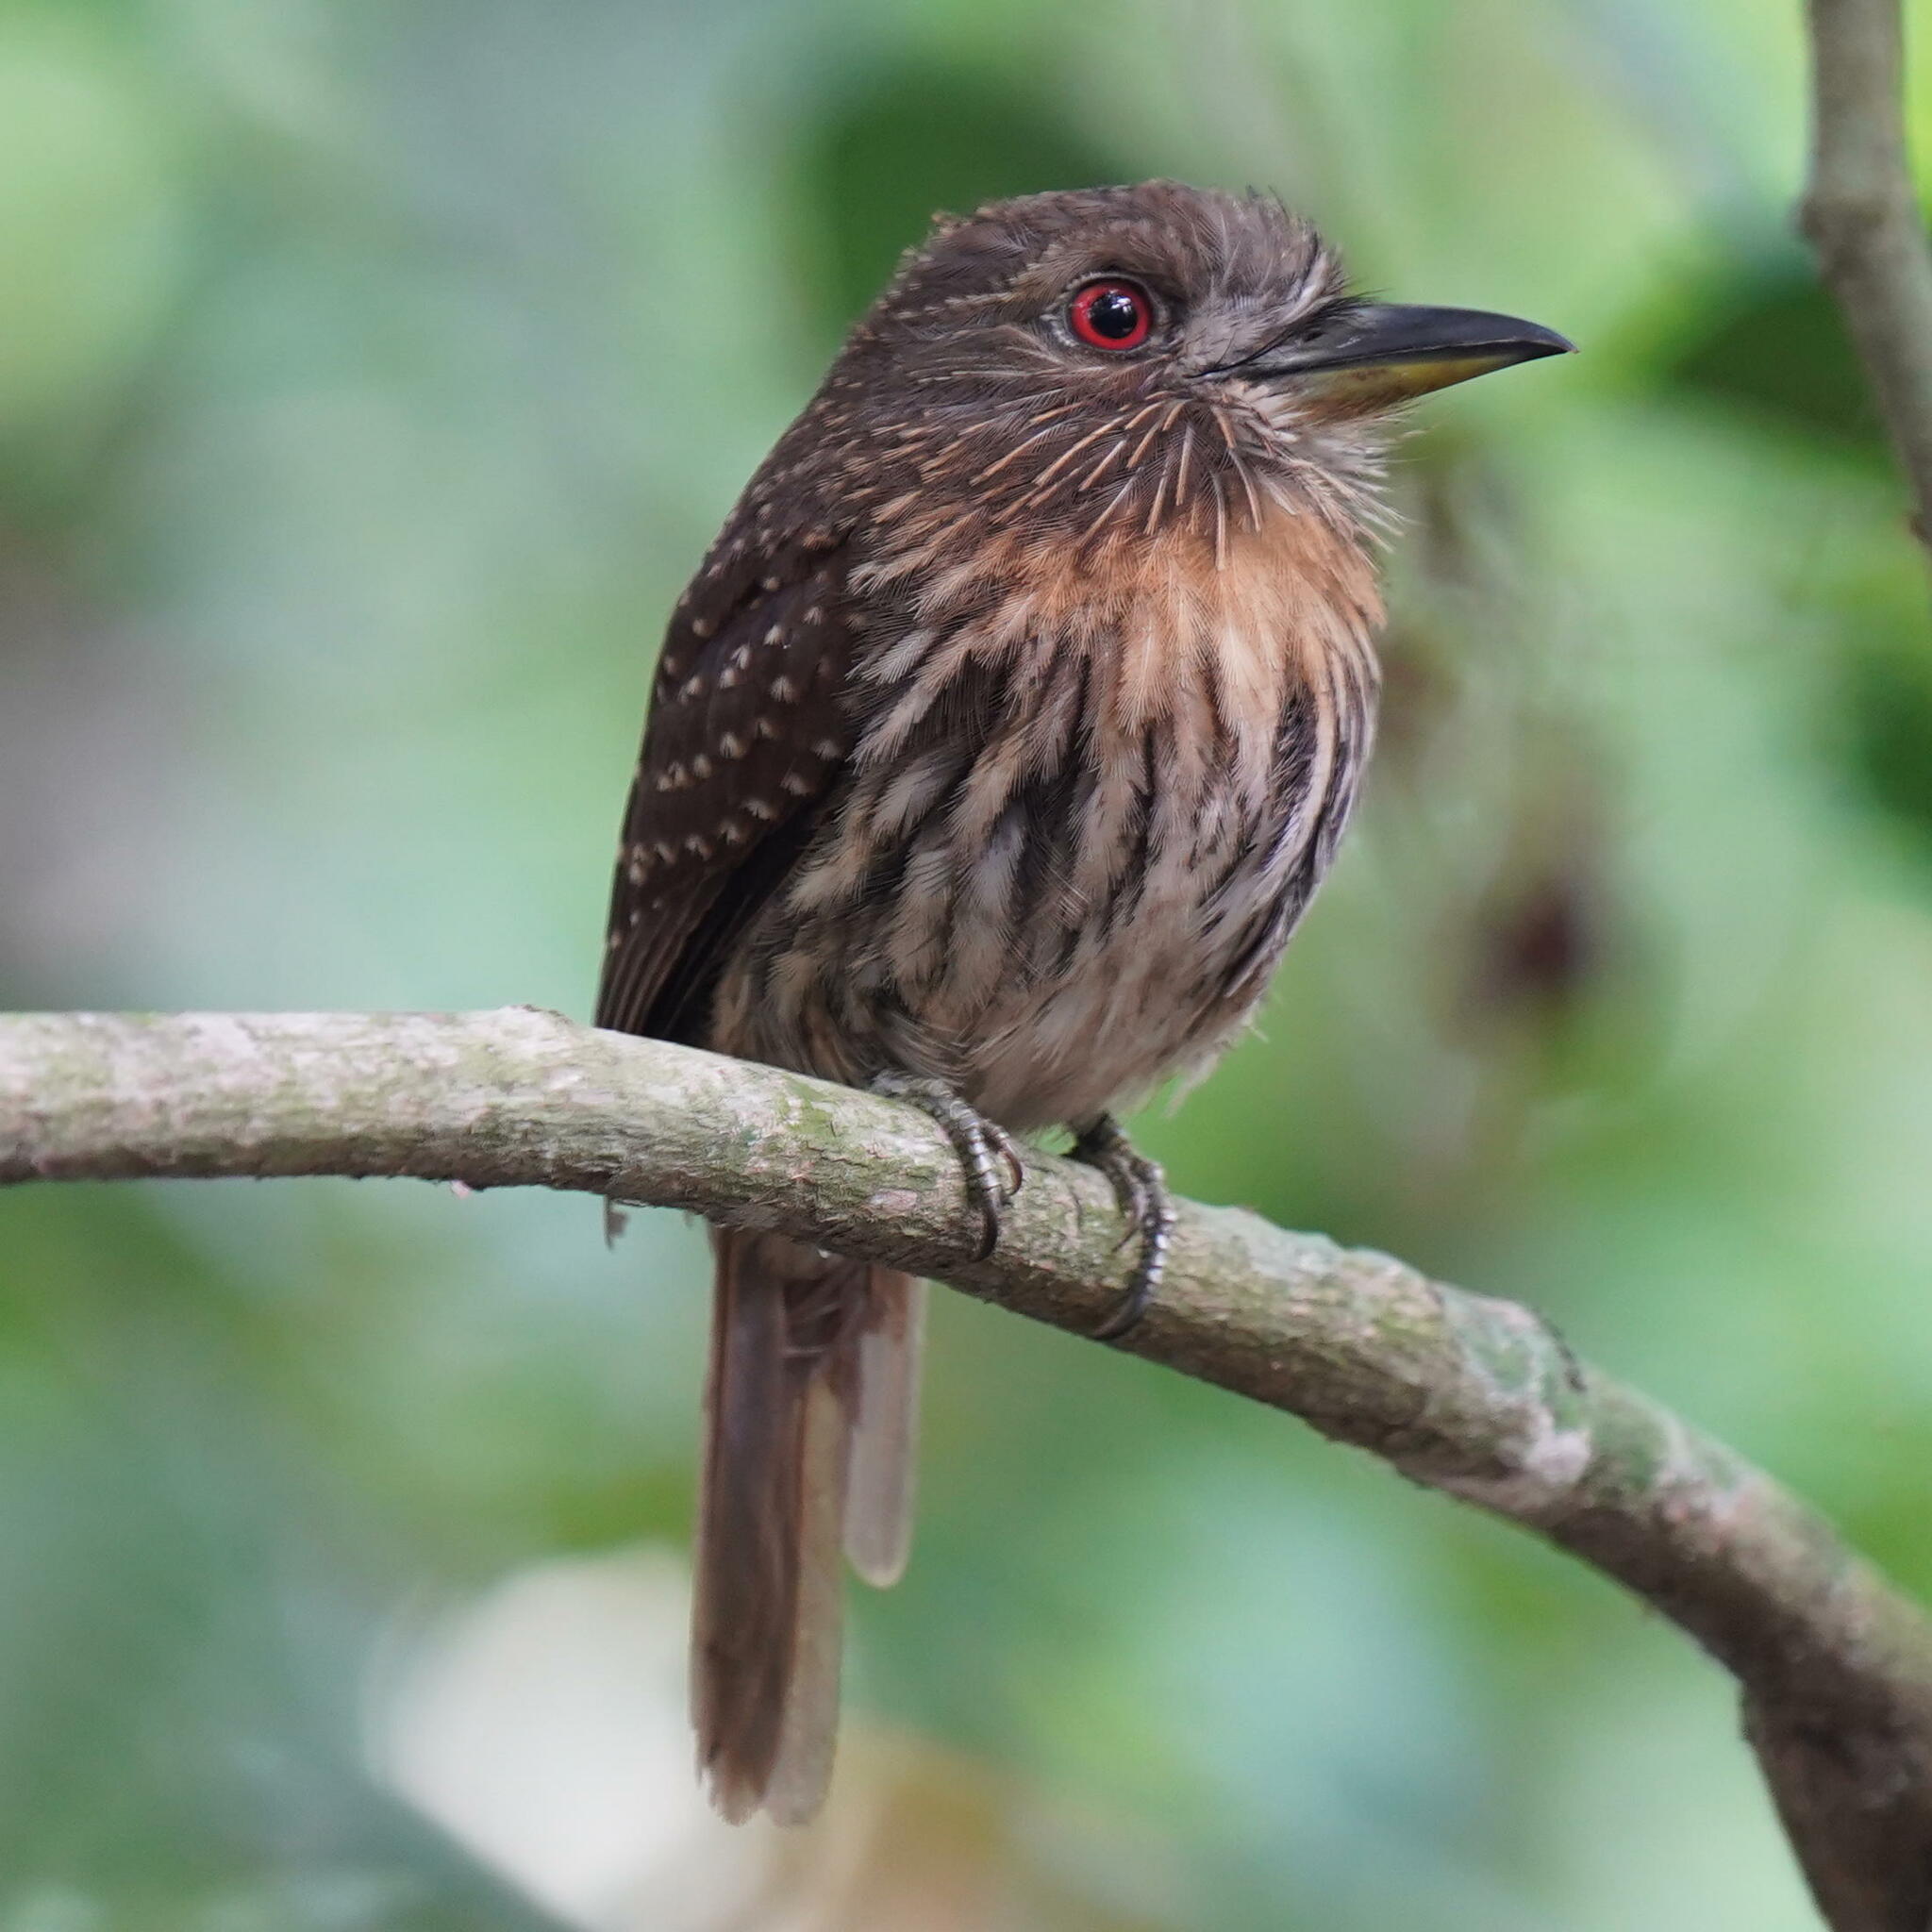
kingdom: Animalia
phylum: Chordata
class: Aves
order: Piciformes
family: Bucconidae
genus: Malacoptila
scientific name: Malacoptila panamensis
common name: White-whiskered puffbird
